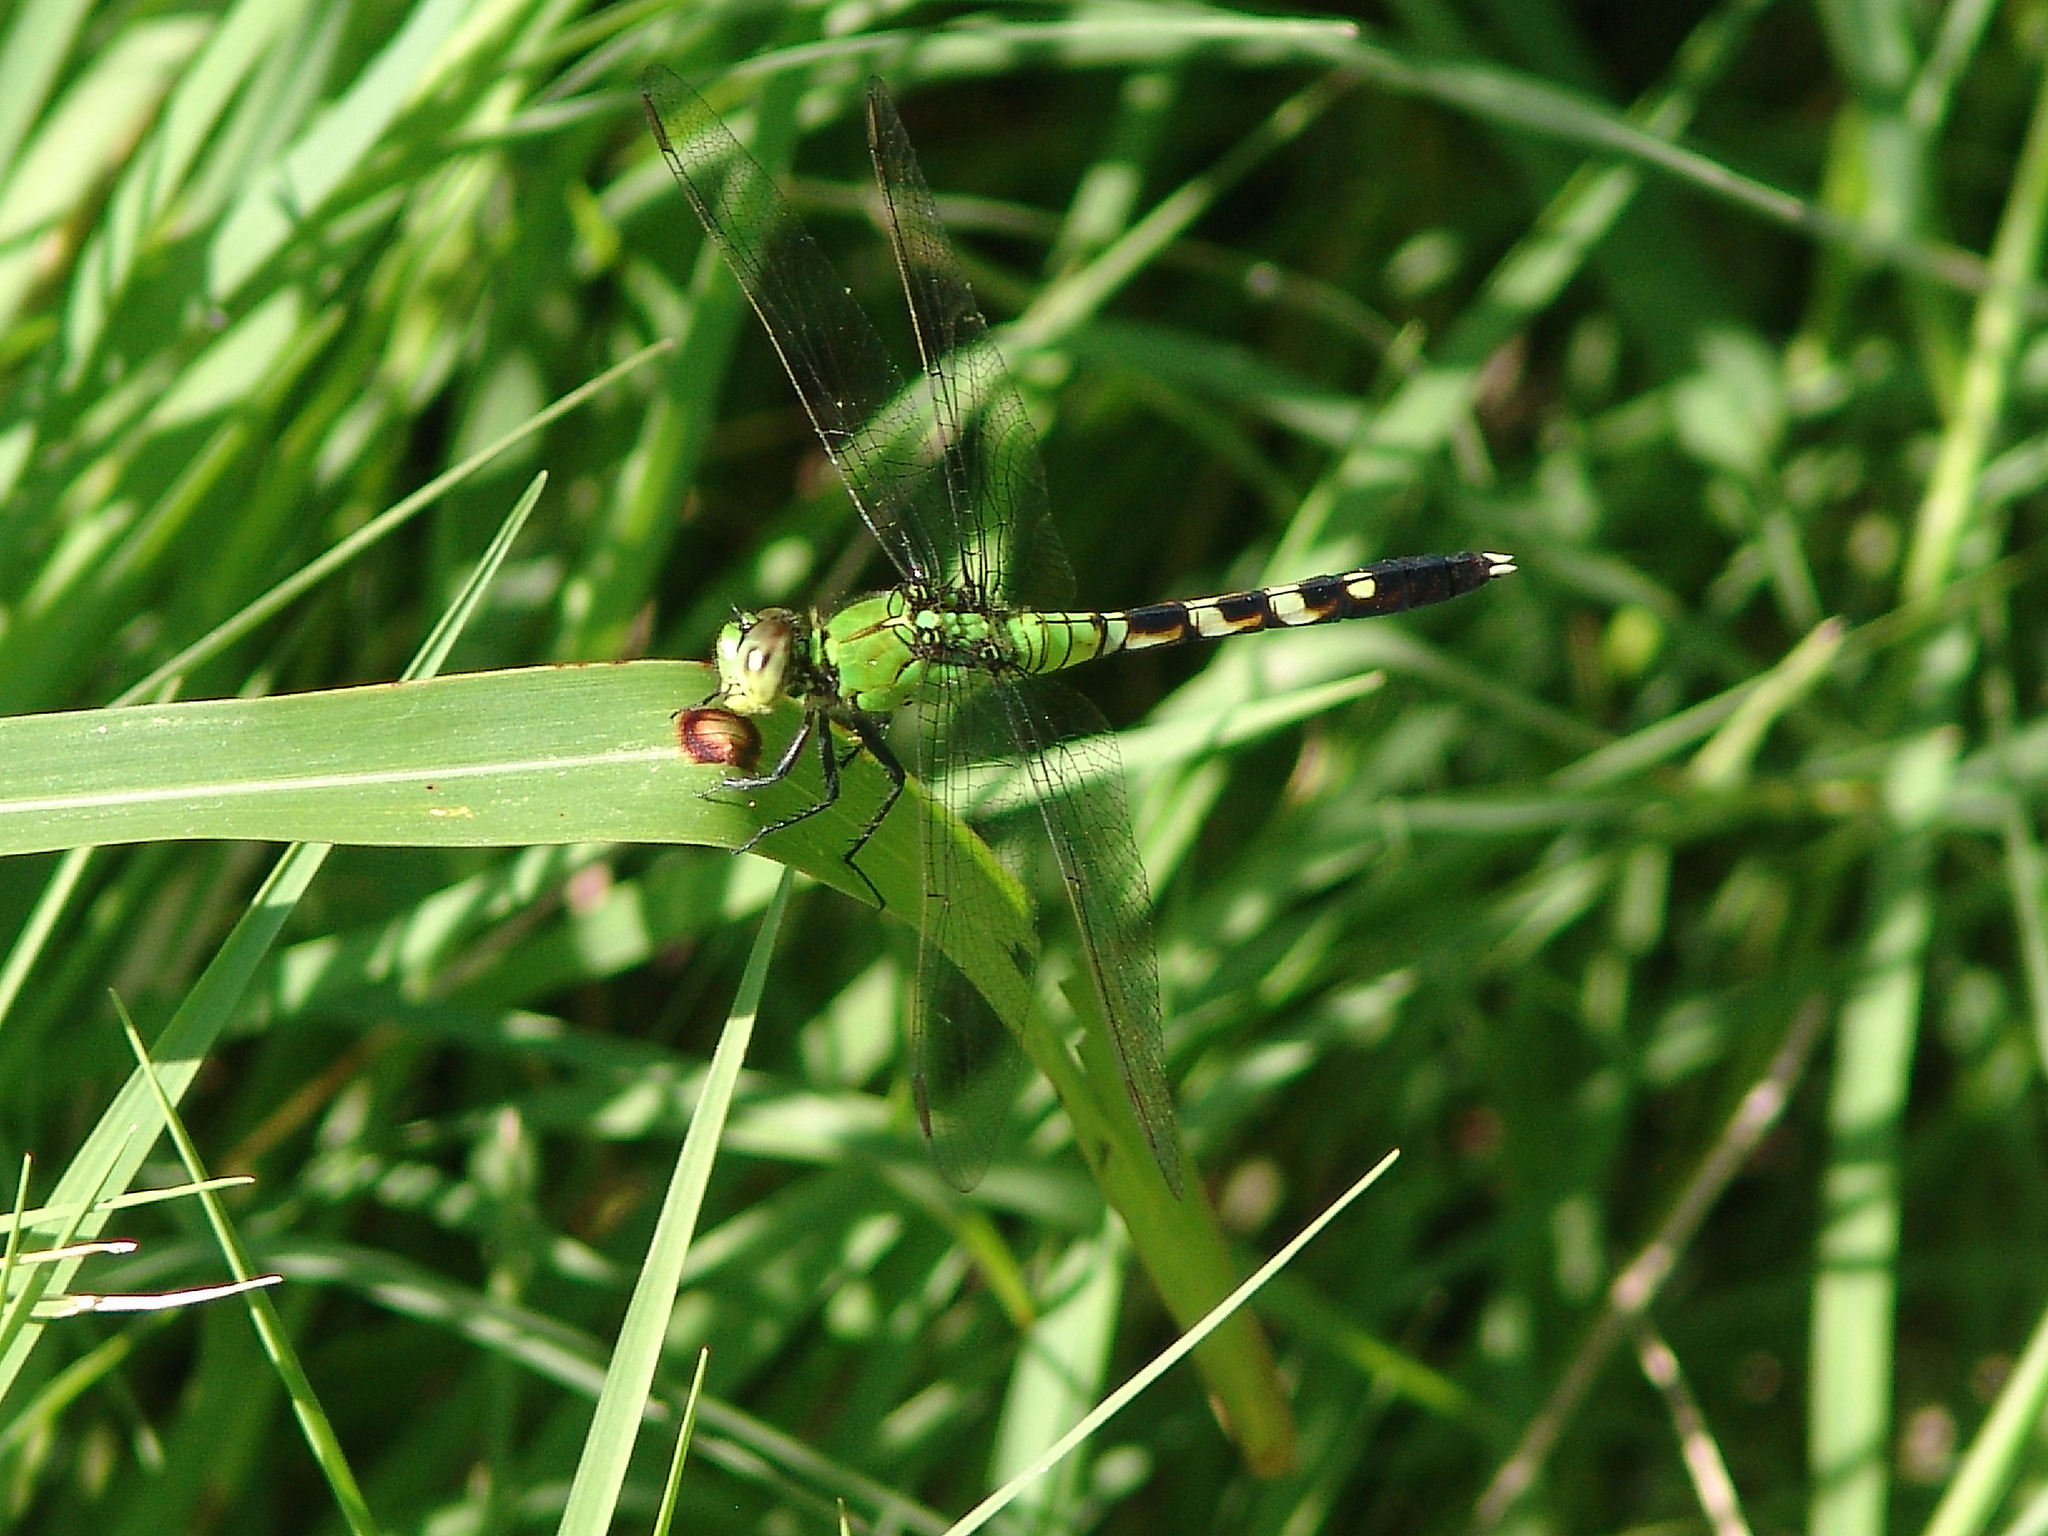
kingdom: Animalia
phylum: Arthropoda
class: Insecta
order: Odonata
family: Libellulidae
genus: Erythemis
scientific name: Erythemis simplicicollis
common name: Eastern pondhawk
